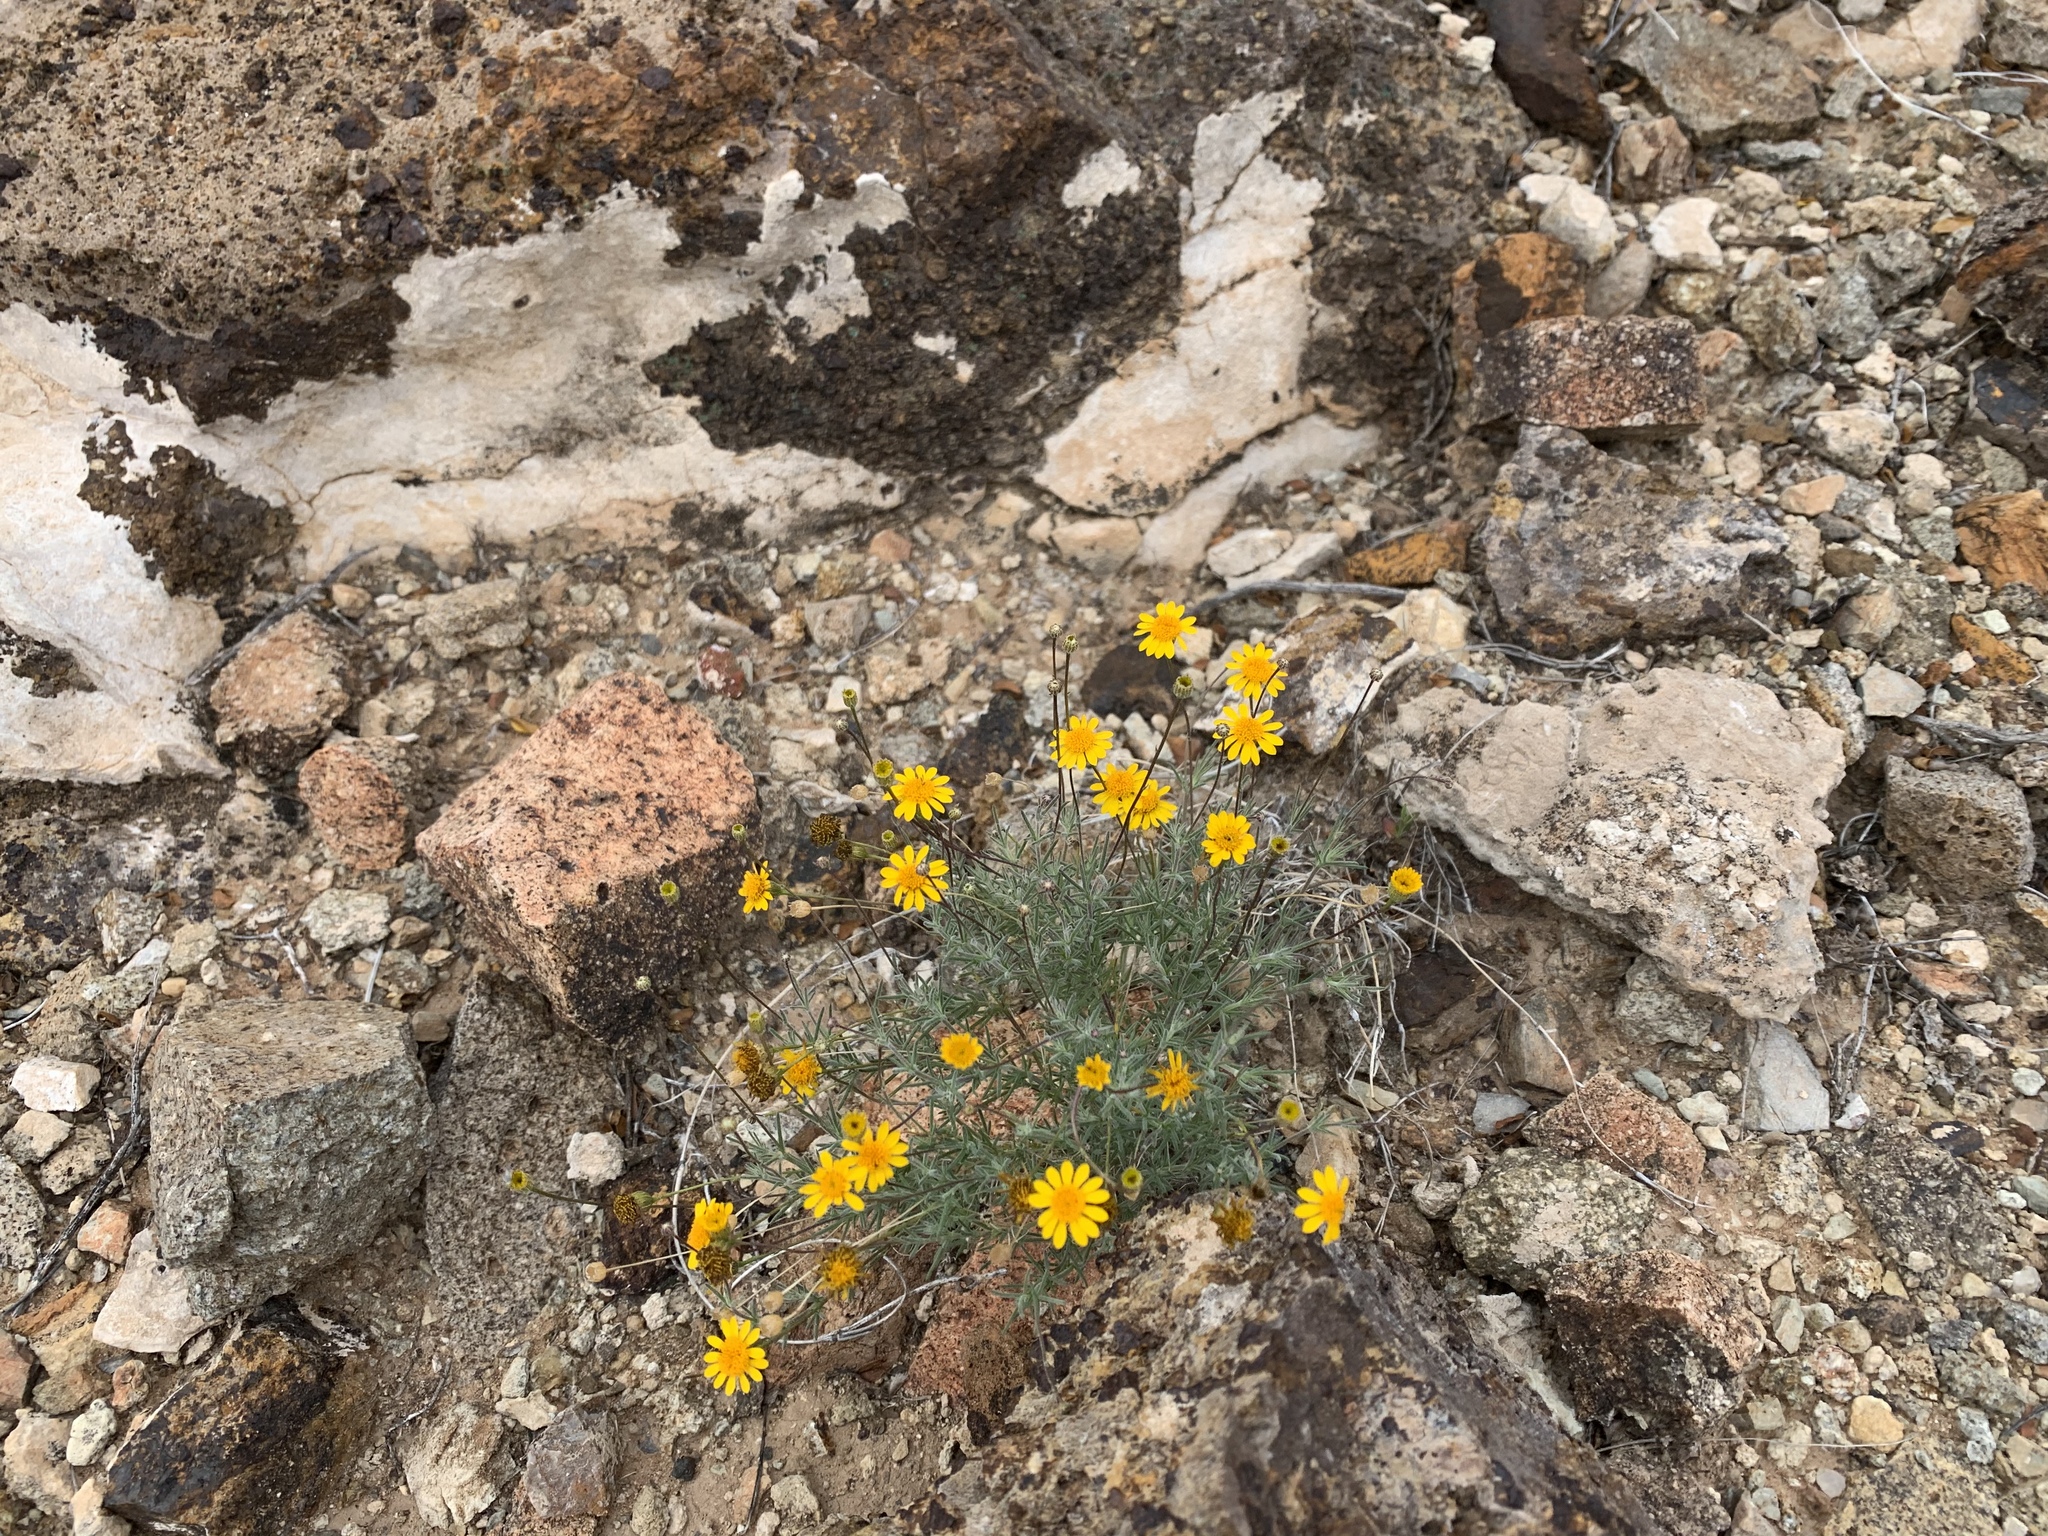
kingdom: Plantae
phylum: Tracheophyta
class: Magnoliopsida
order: Asterales
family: Asteraceae
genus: Thymophylla
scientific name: Thymophylla pentachaeta
